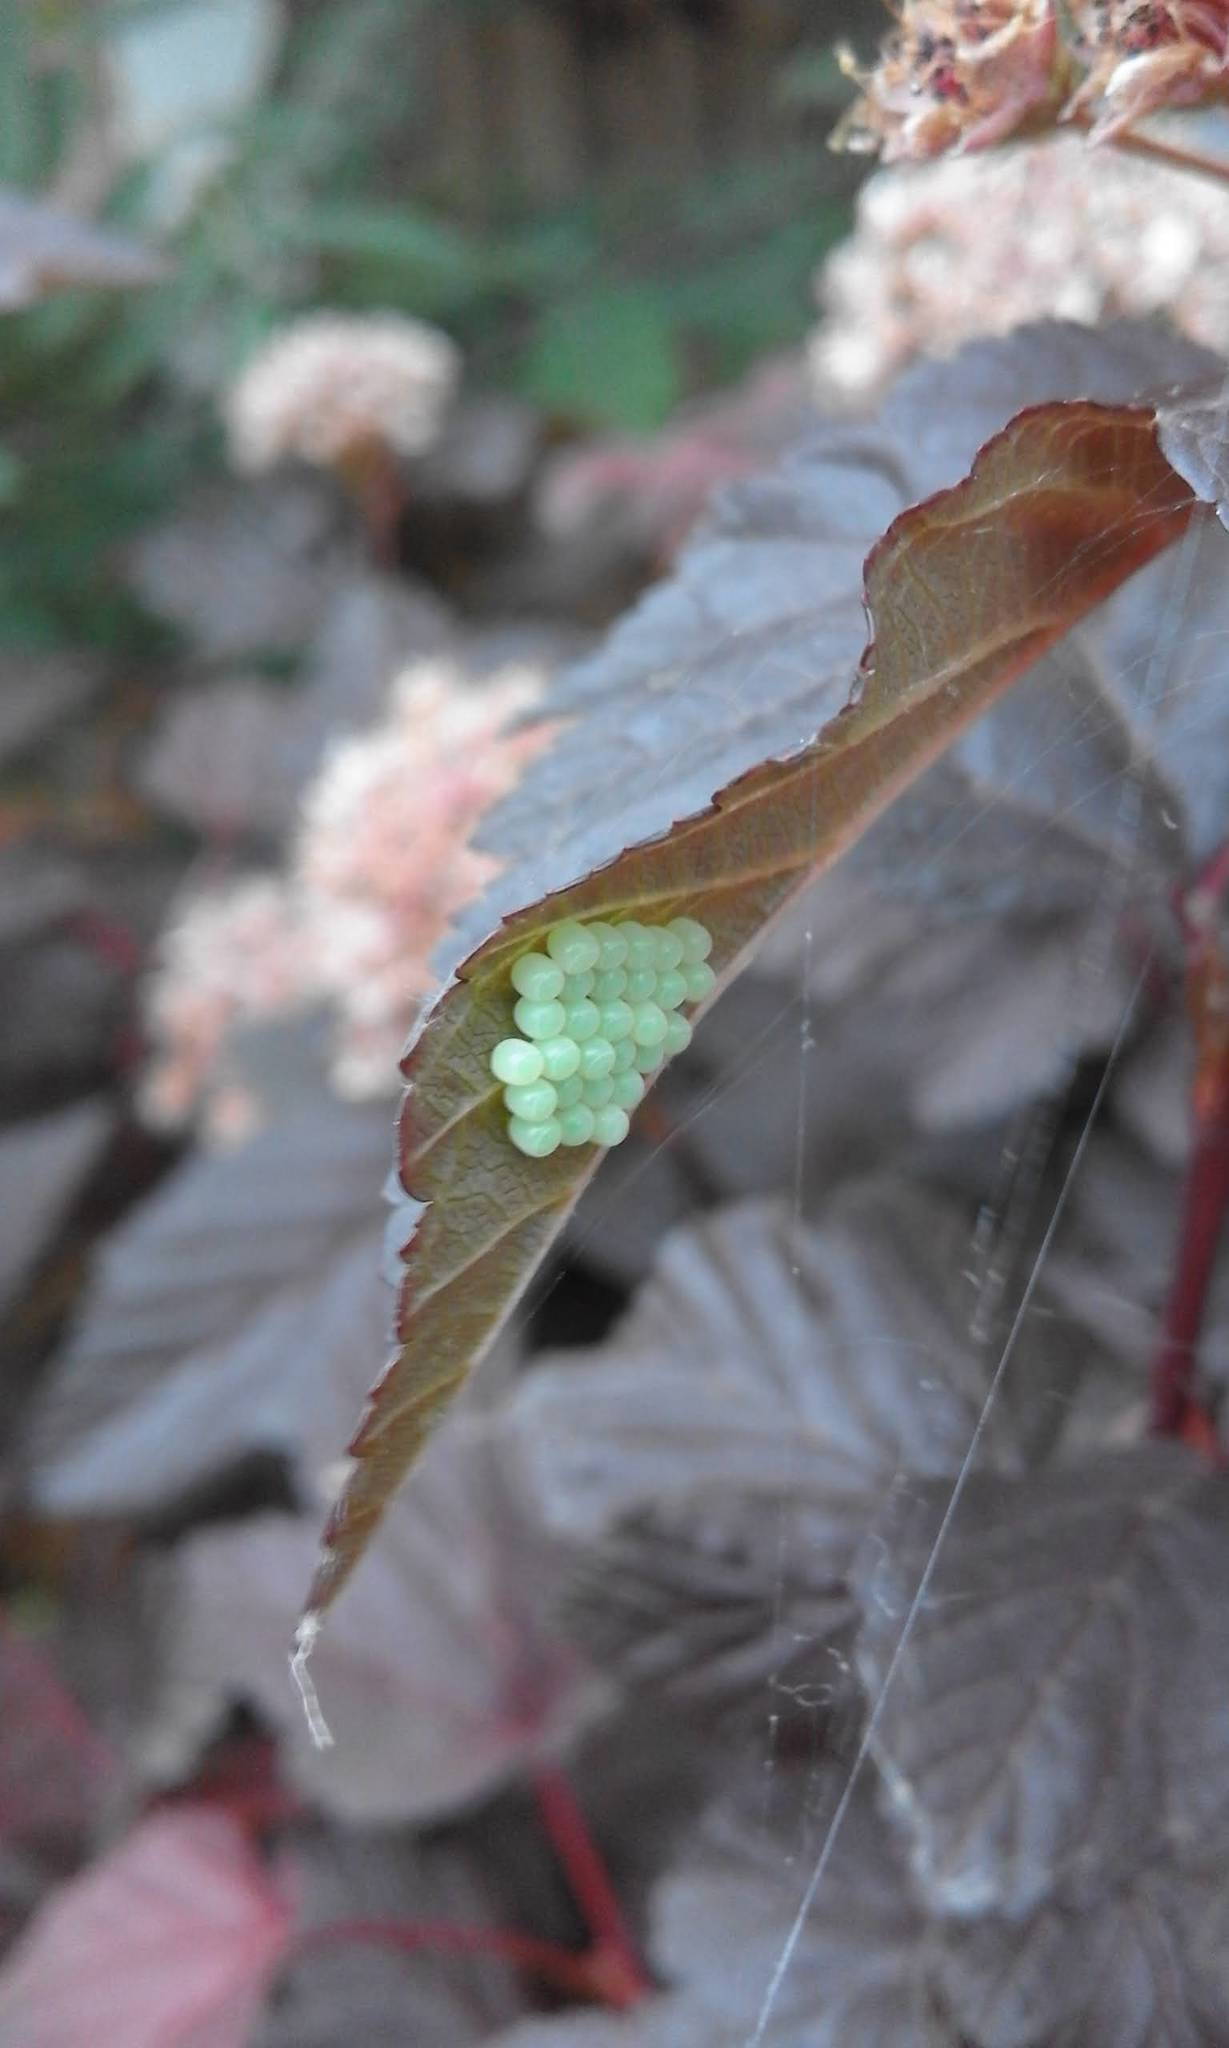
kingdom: Animalia
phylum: Arthropoda
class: Insecta
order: Hemiptera
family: Pentatomidae
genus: Palomena
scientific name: Palomena prasina
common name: Green shieldbug
